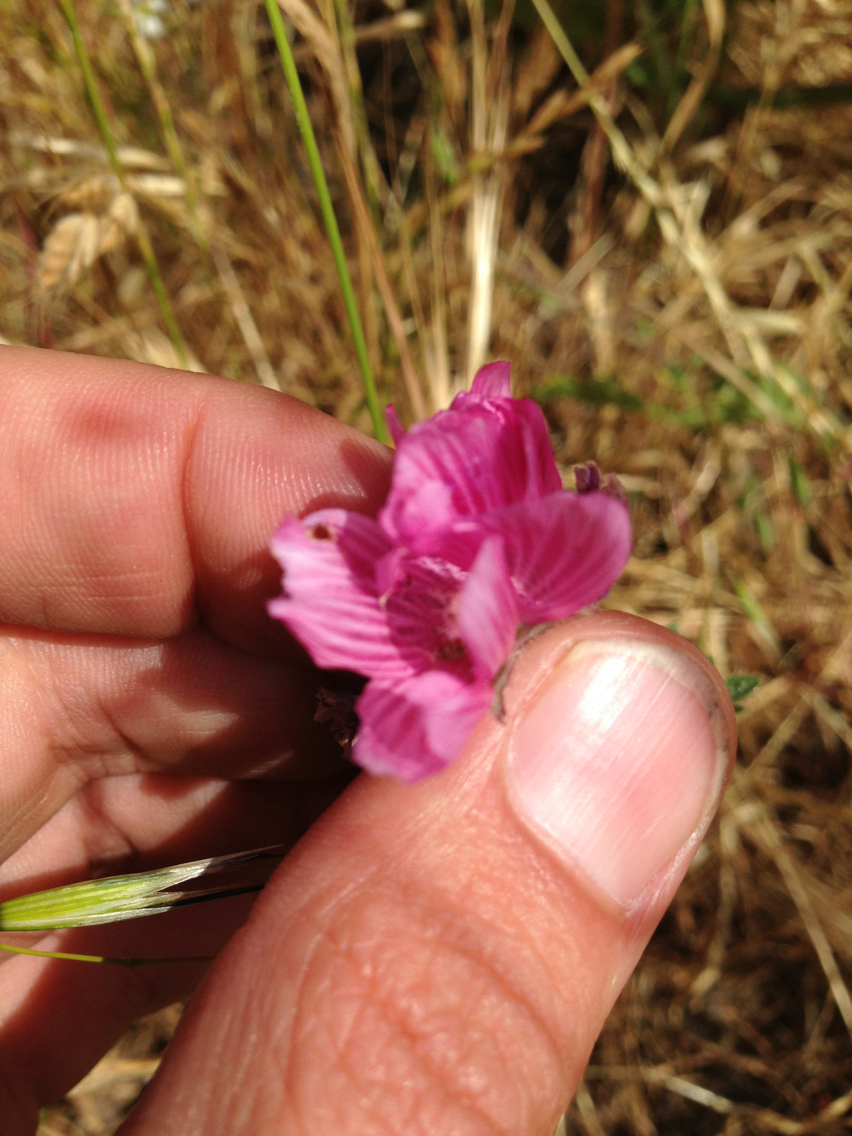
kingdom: Plantae
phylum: Tracheophyta
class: Magnoliopsida
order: Malvales
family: Malvaceae
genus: Sidalcea
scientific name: Sidalcea malviflora
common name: Greek mallow
